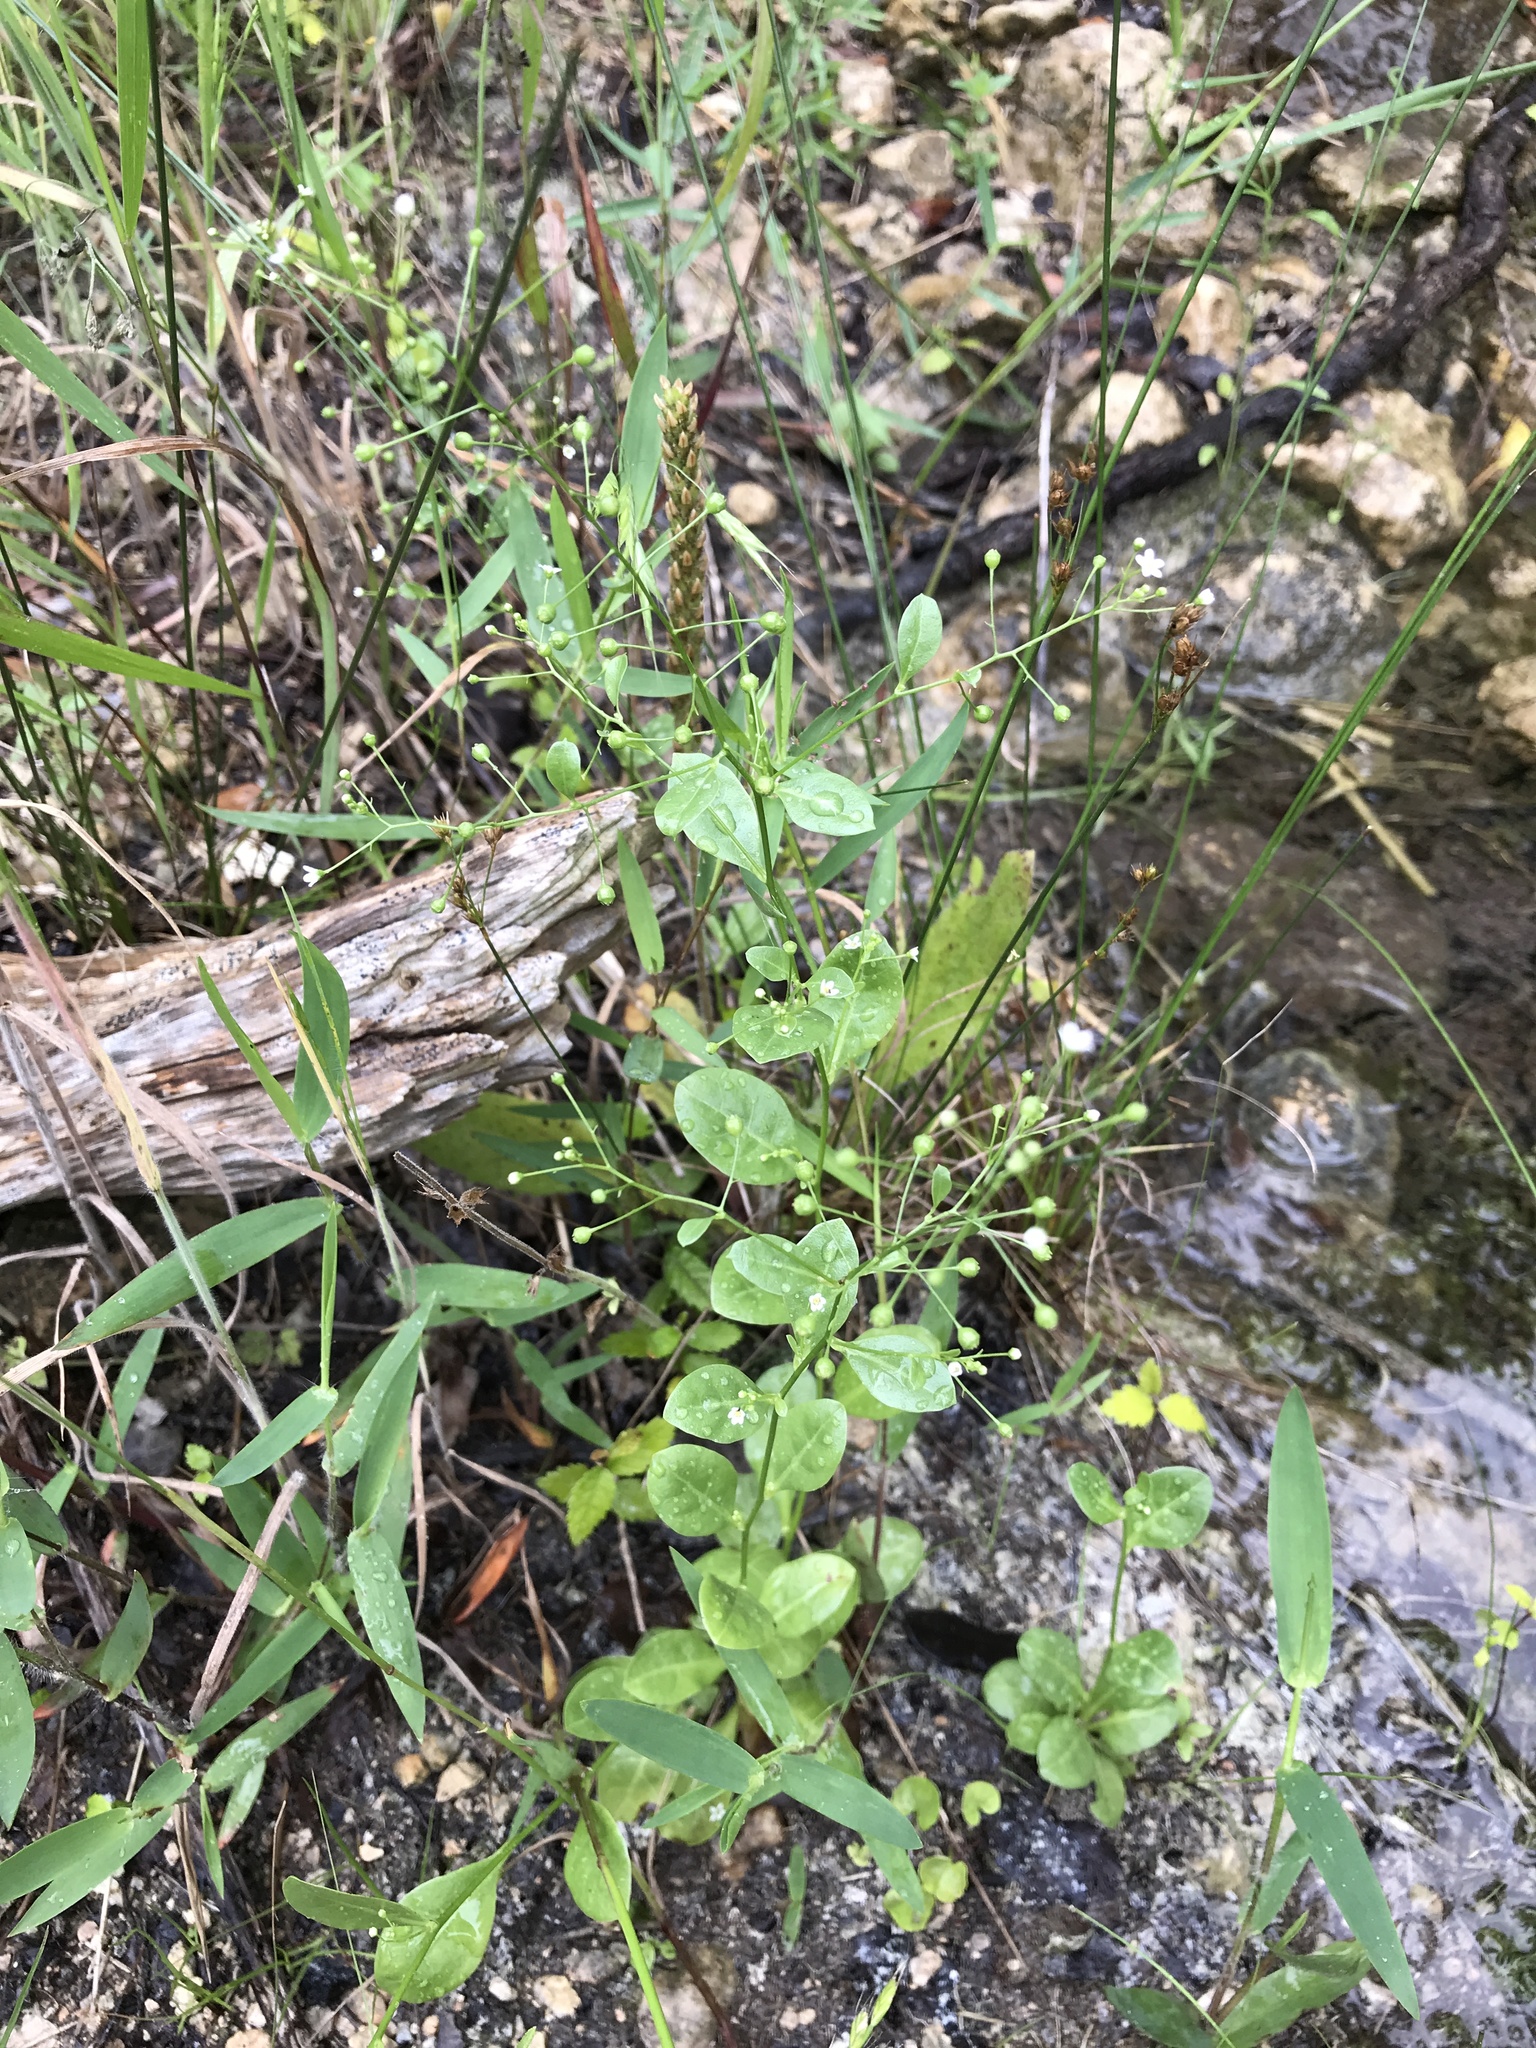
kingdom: Plantae
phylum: Tracheophyta
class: Magnoliopsida
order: Ericales
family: Primulaceae
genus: Samolus
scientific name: Samolus parviflorus
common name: False water pimpernel
